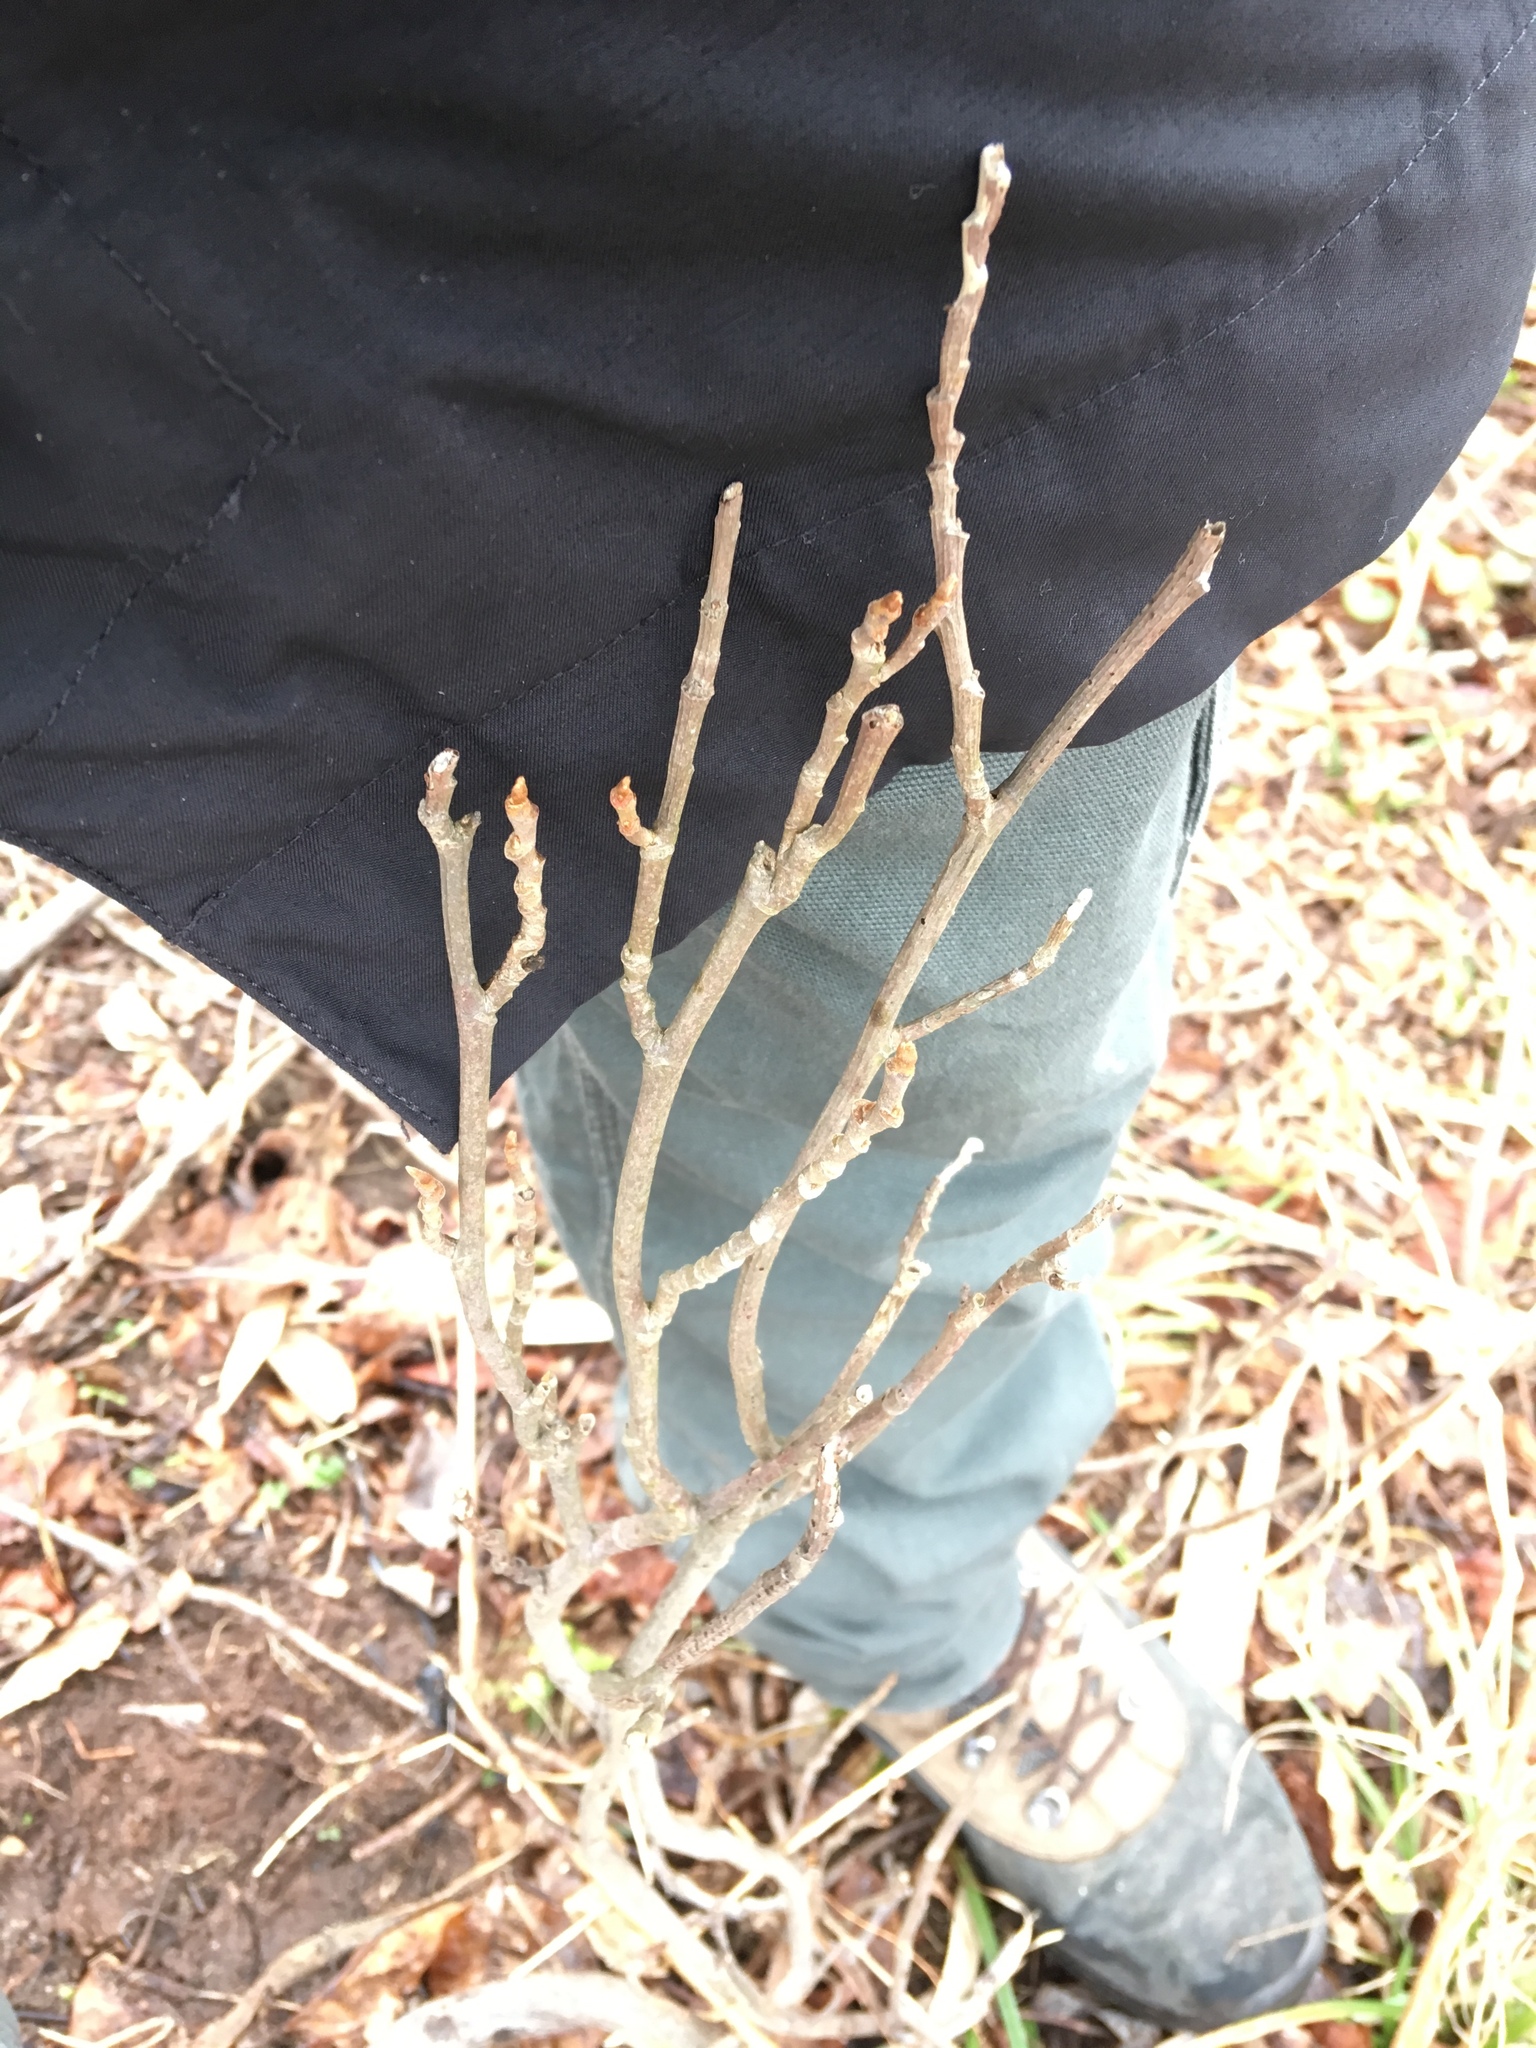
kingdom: Plantae
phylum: Tracheophyta
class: Magnoliopsida
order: Sapindales
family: Anacardiaceae
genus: Toxicodendron
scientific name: Toxicodendron radicans
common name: Poison ivy
